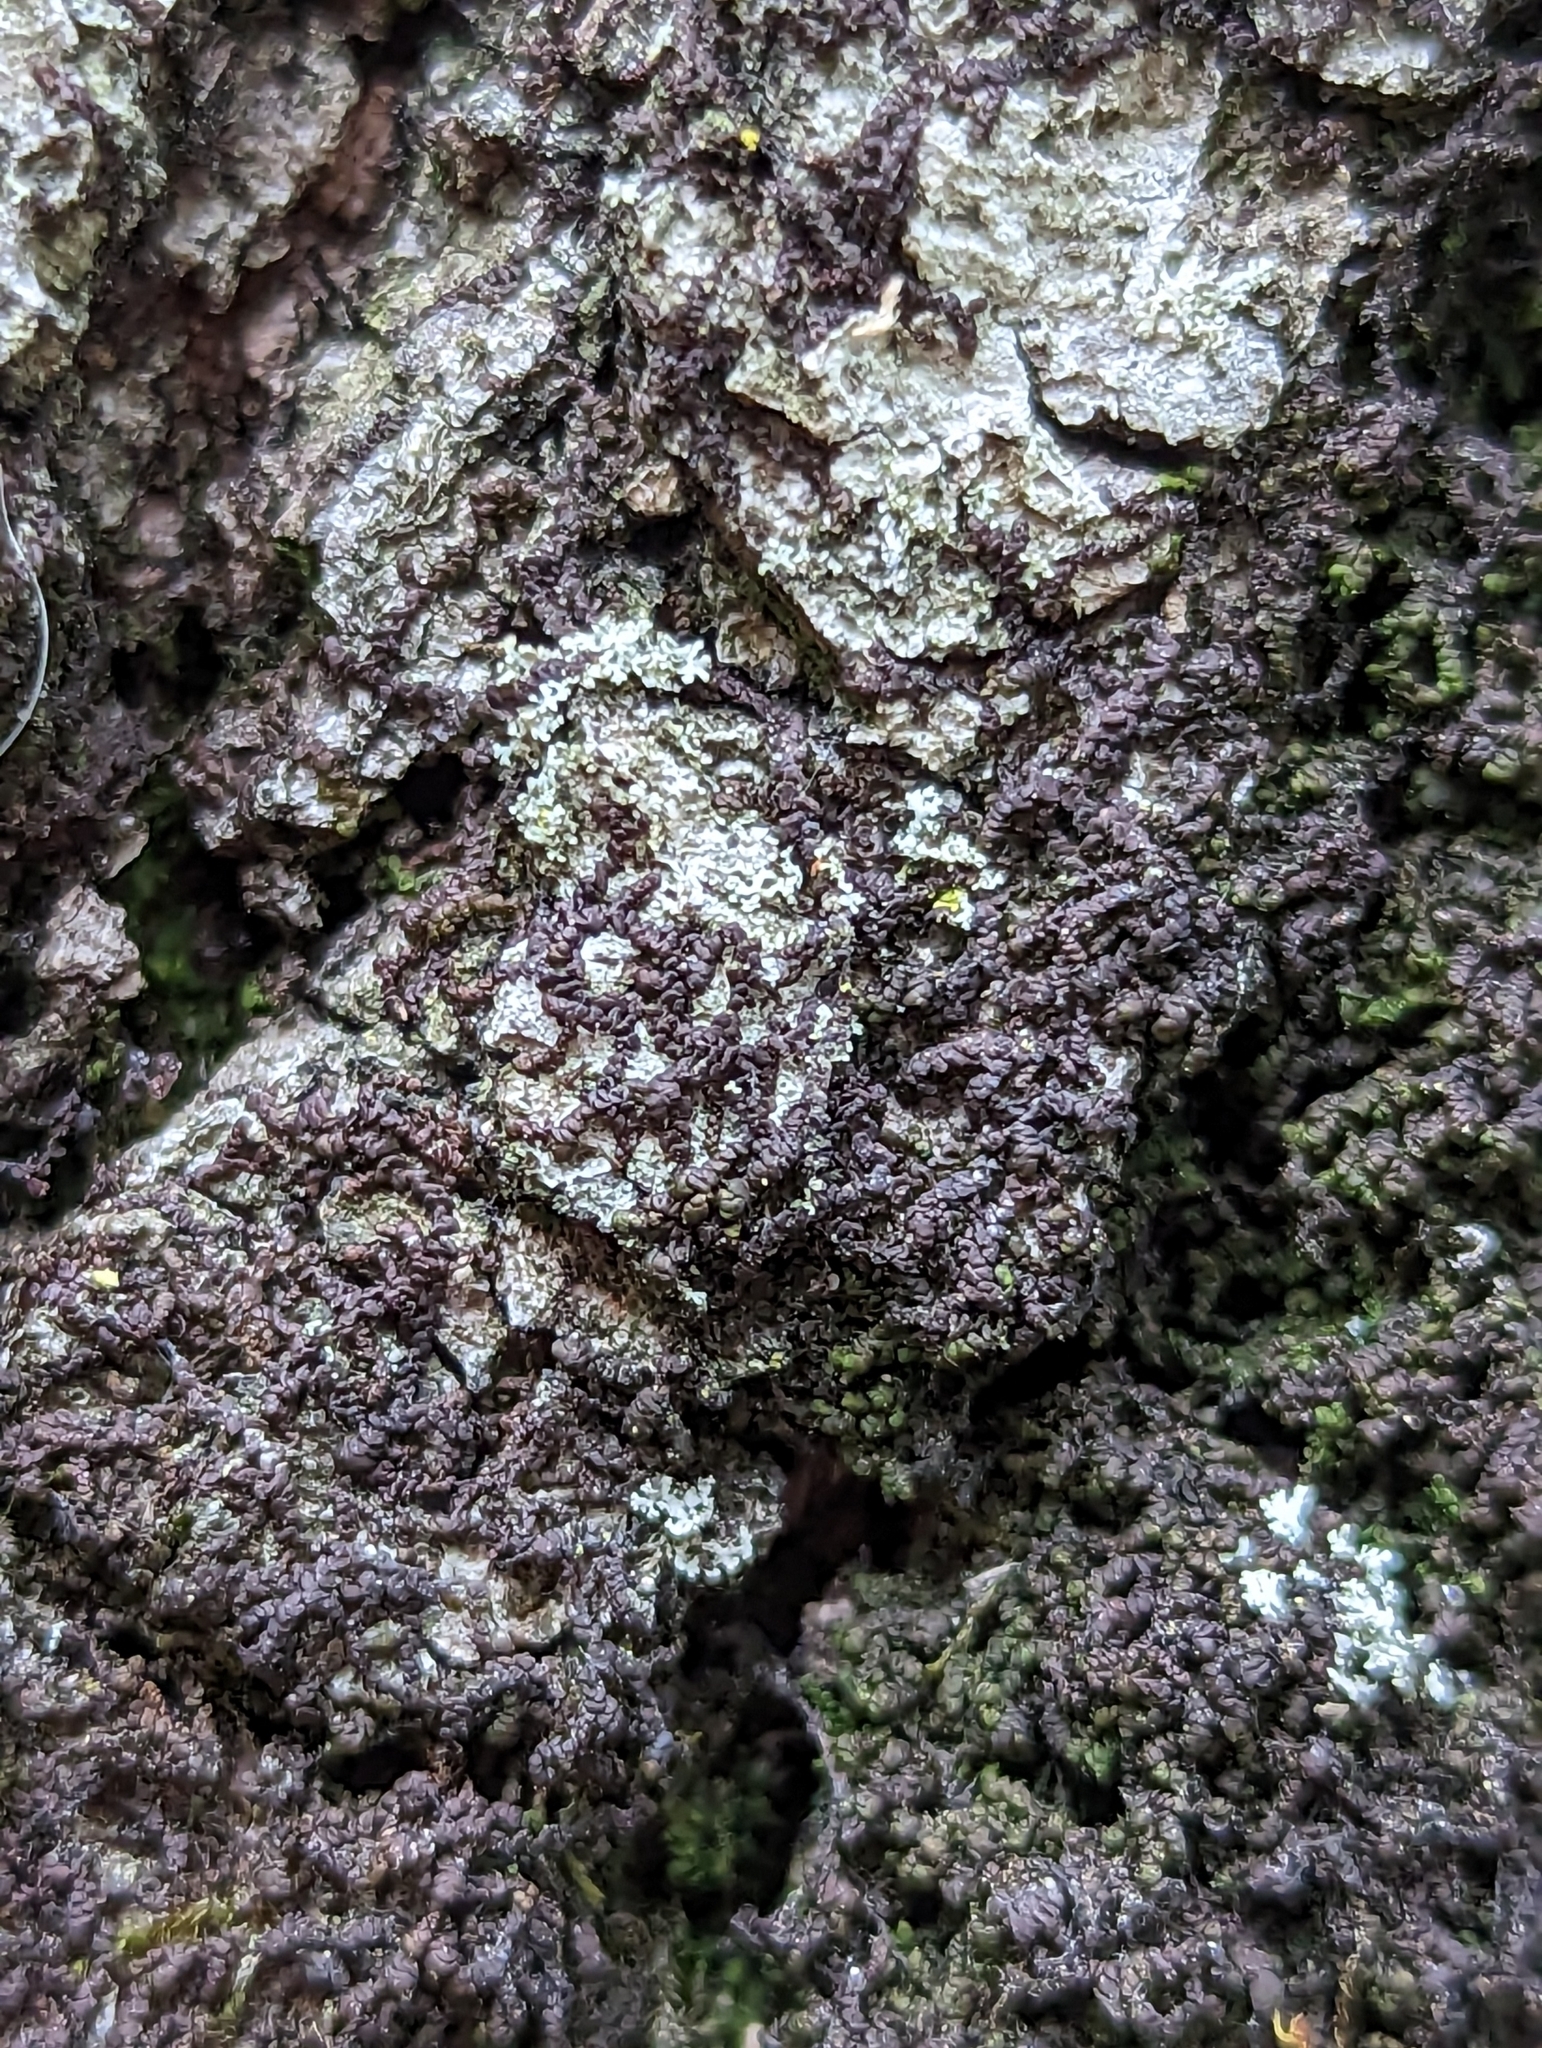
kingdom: Plantae
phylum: Marchantiophyta
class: Jungermanniopsida
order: Porellales
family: Frullaniaceae
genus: Frullania
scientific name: Frullania eboracensis
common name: New york scalewort
